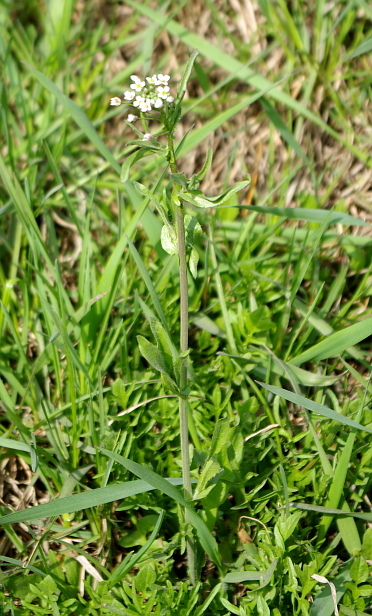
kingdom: Plantae
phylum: Tracheophyta
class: Magnoliopsida
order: Brassicales
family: Brassicaceae
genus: Capsella
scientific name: Capsella bursa-pastoris
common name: Shepherd's purse
